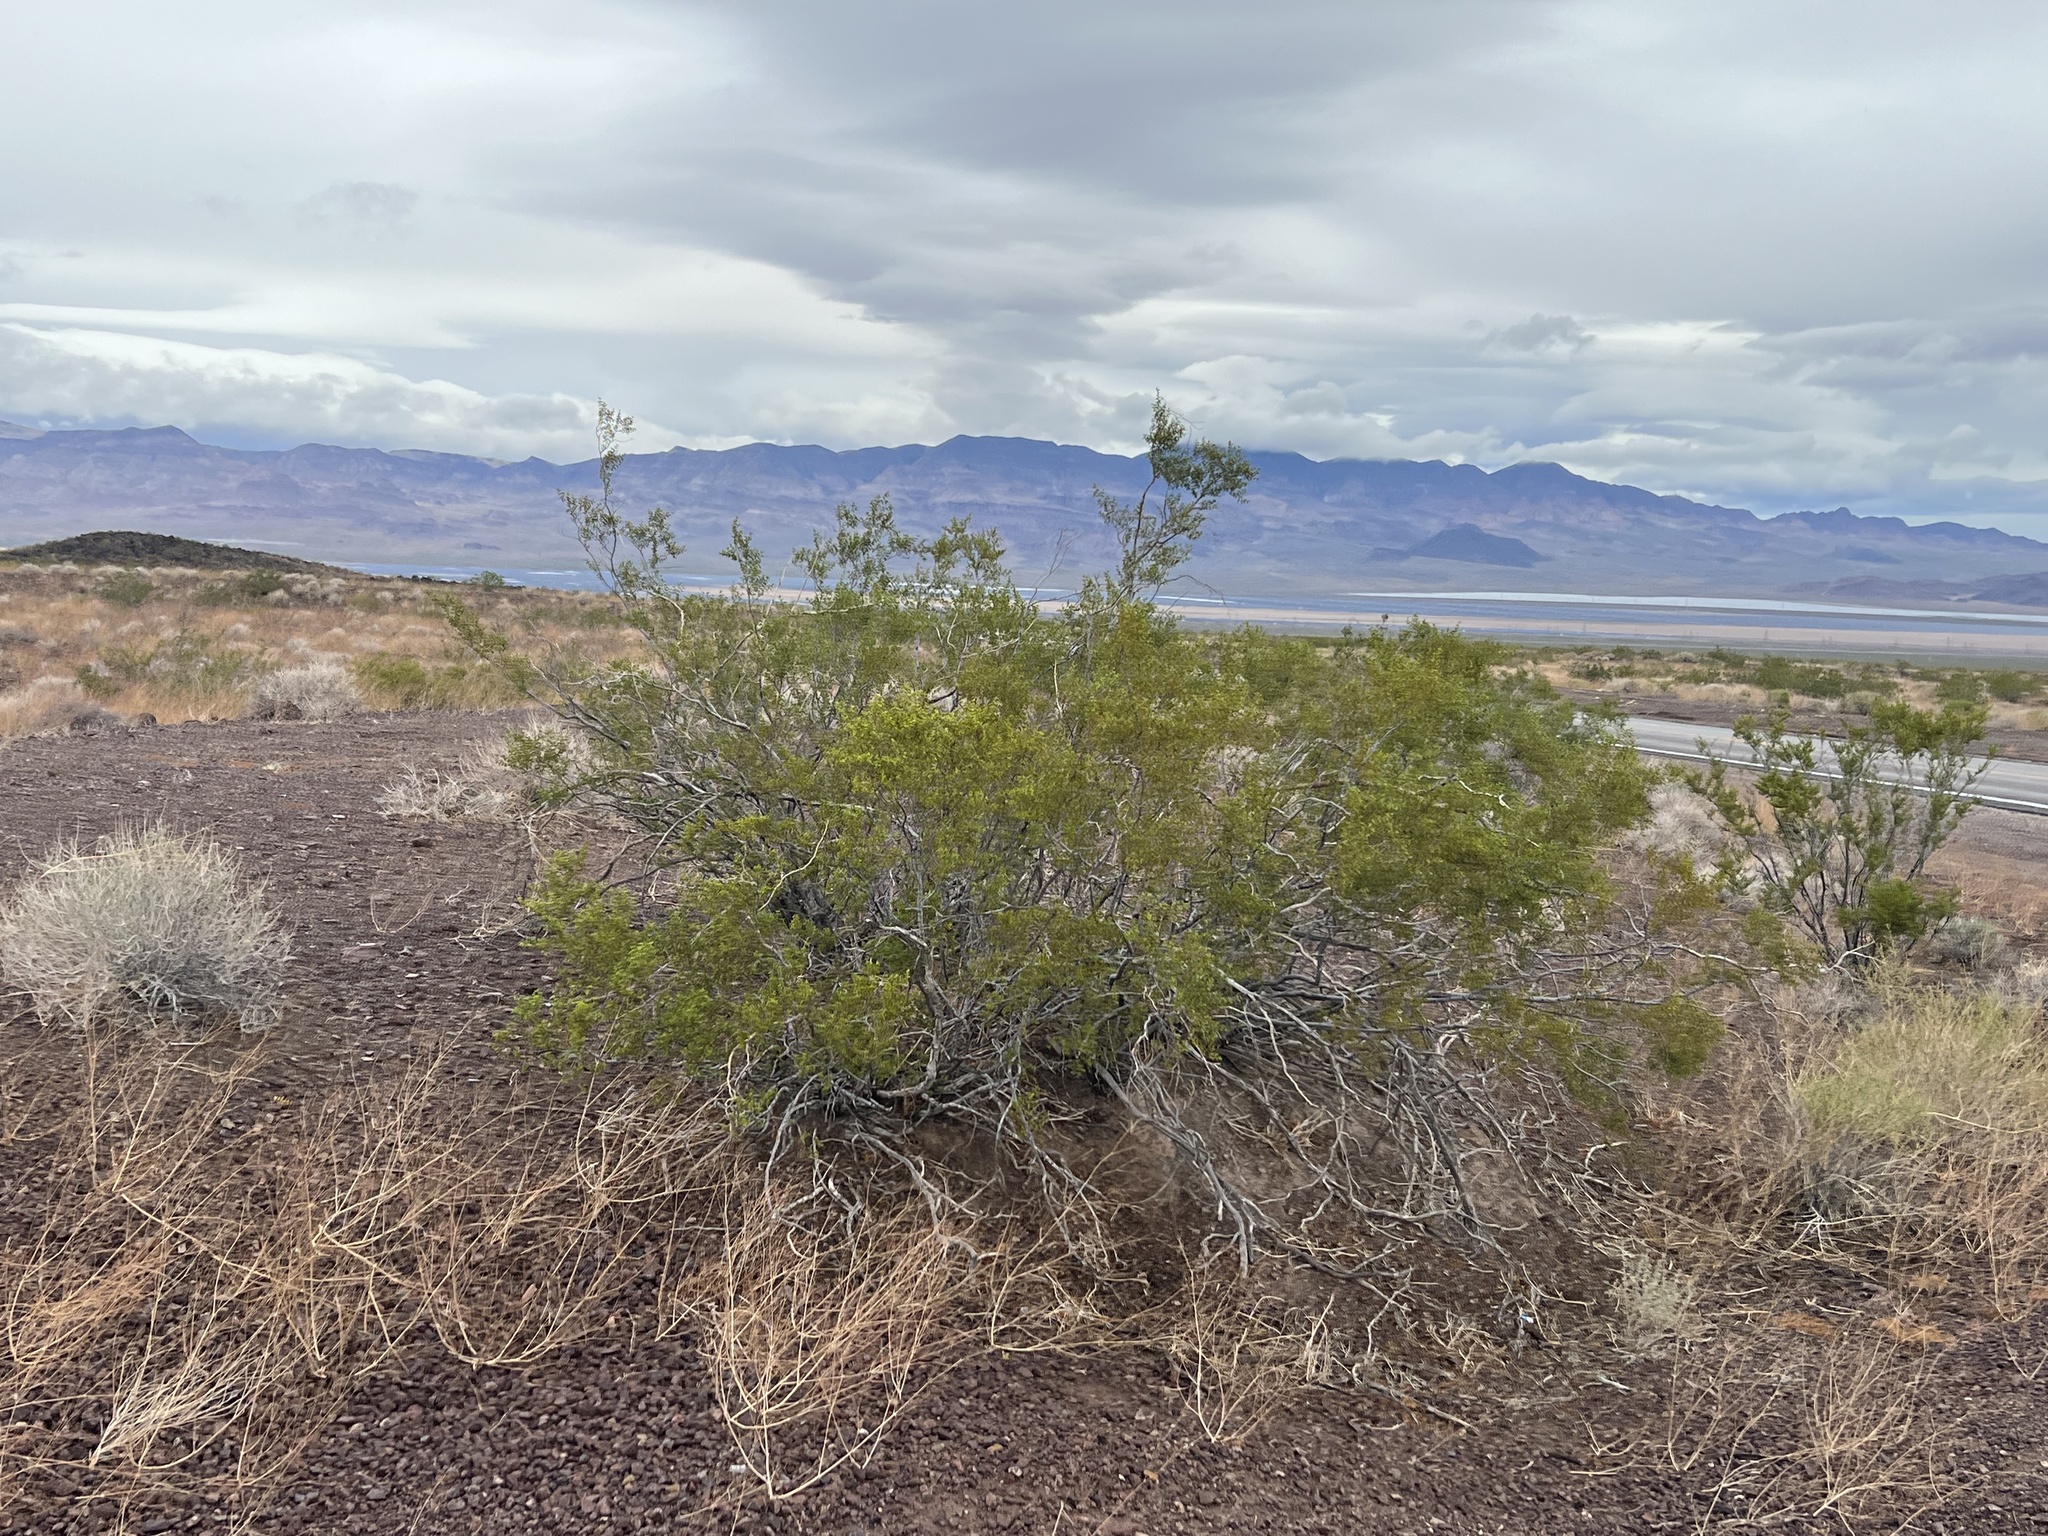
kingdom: Plantae
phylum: Tracheophyta
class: Magnoliopsida
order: Zygophyllales
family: Zygophyllaceae
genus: Larrea
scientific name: Larrea tridentata
